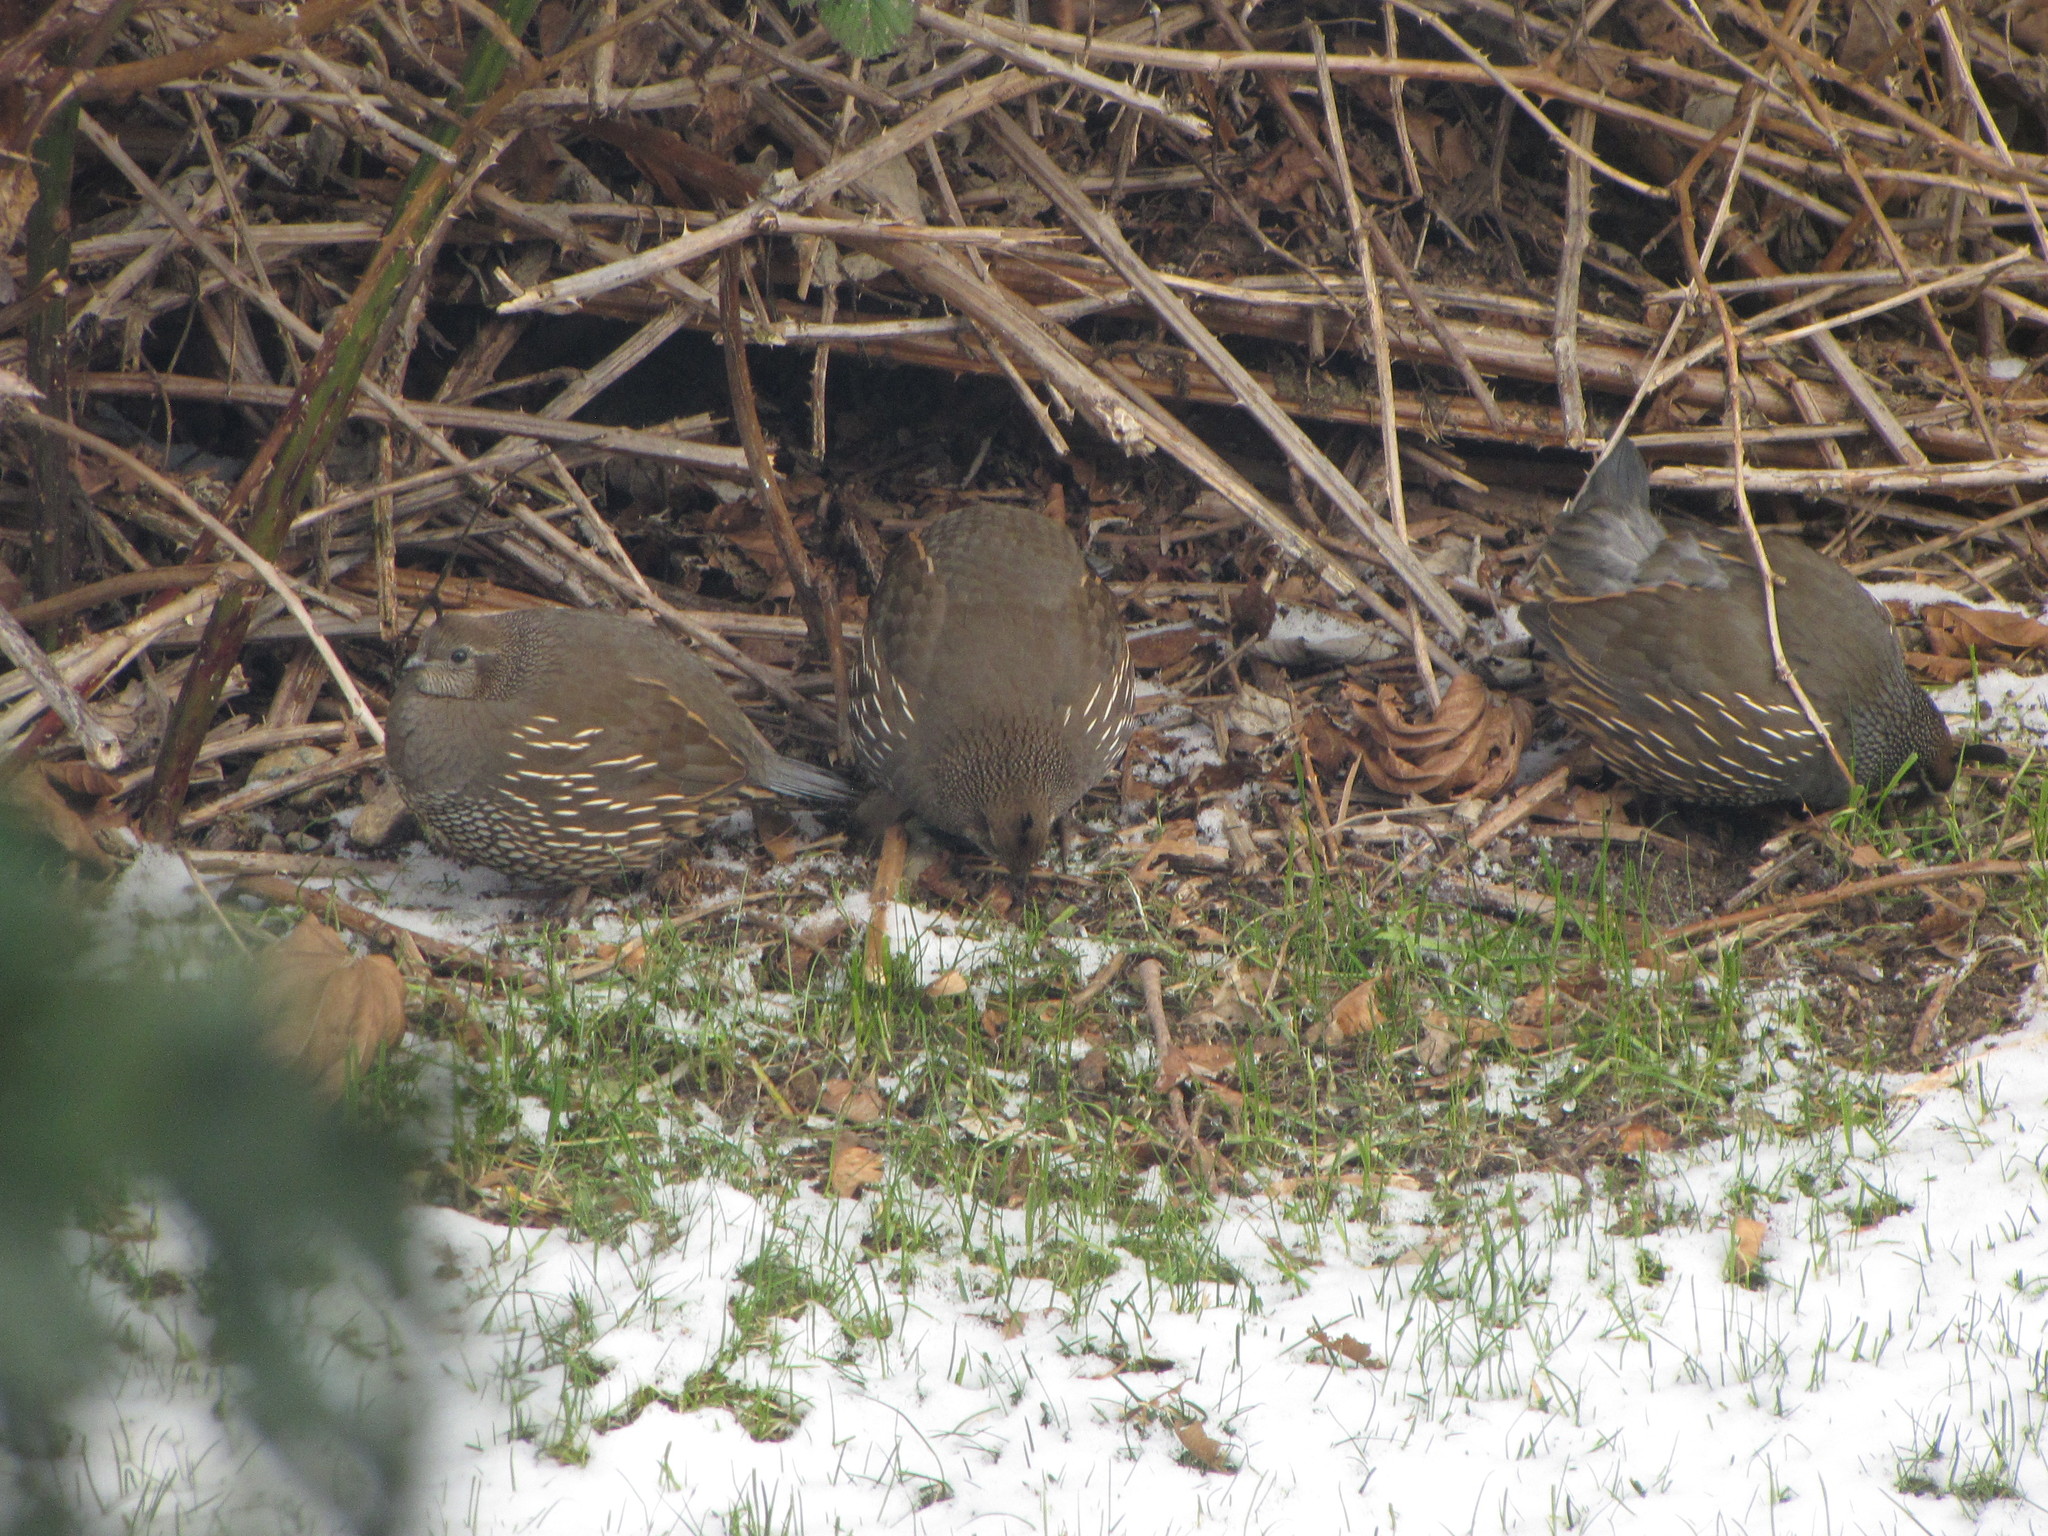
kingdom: Animalia
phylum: Chordata
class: Aves
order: Galliformes
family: Odontophoridae
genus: Callipepla
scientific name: Callipepla californica
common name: California quail
